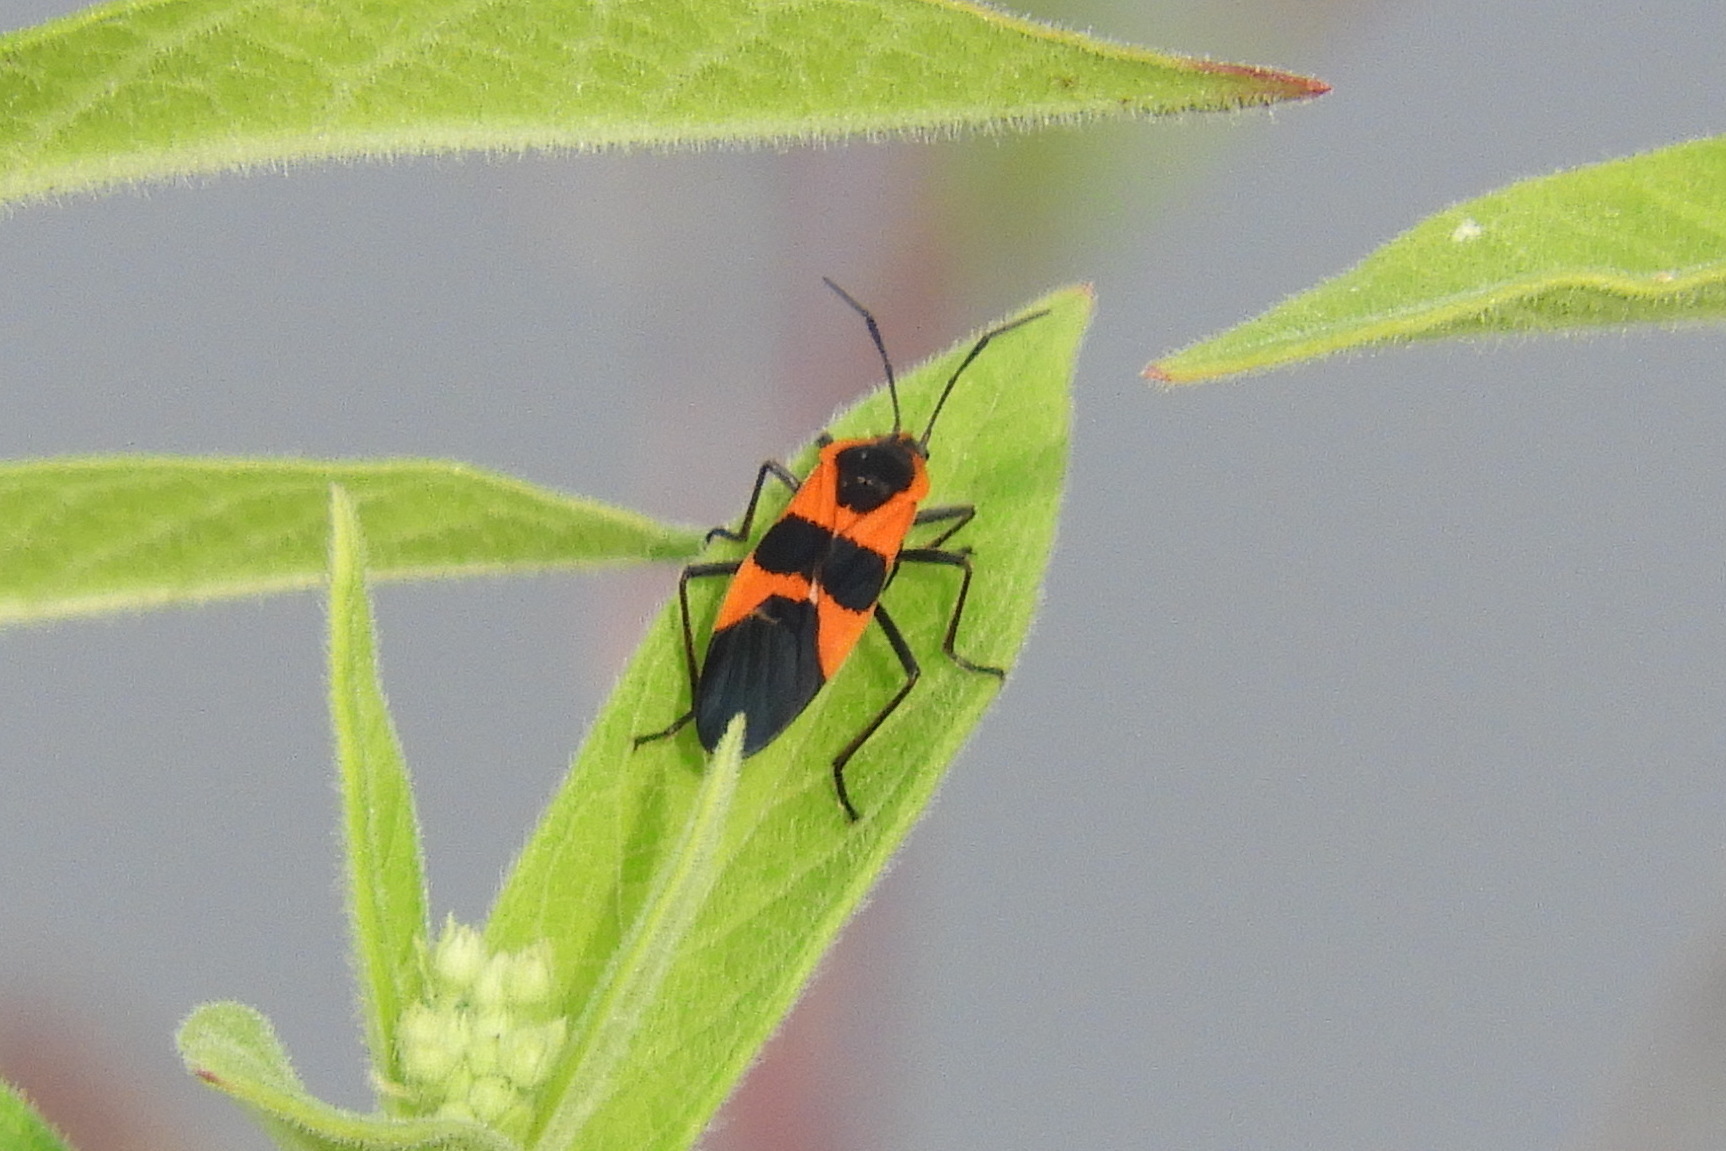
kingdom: Animalia
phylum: Arthropoda
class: Insecta
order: Hemiptera
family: Lygaeidae
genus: Oncopeltus
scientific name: Oncopeltus fasciatus
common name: Large milkweed bug
